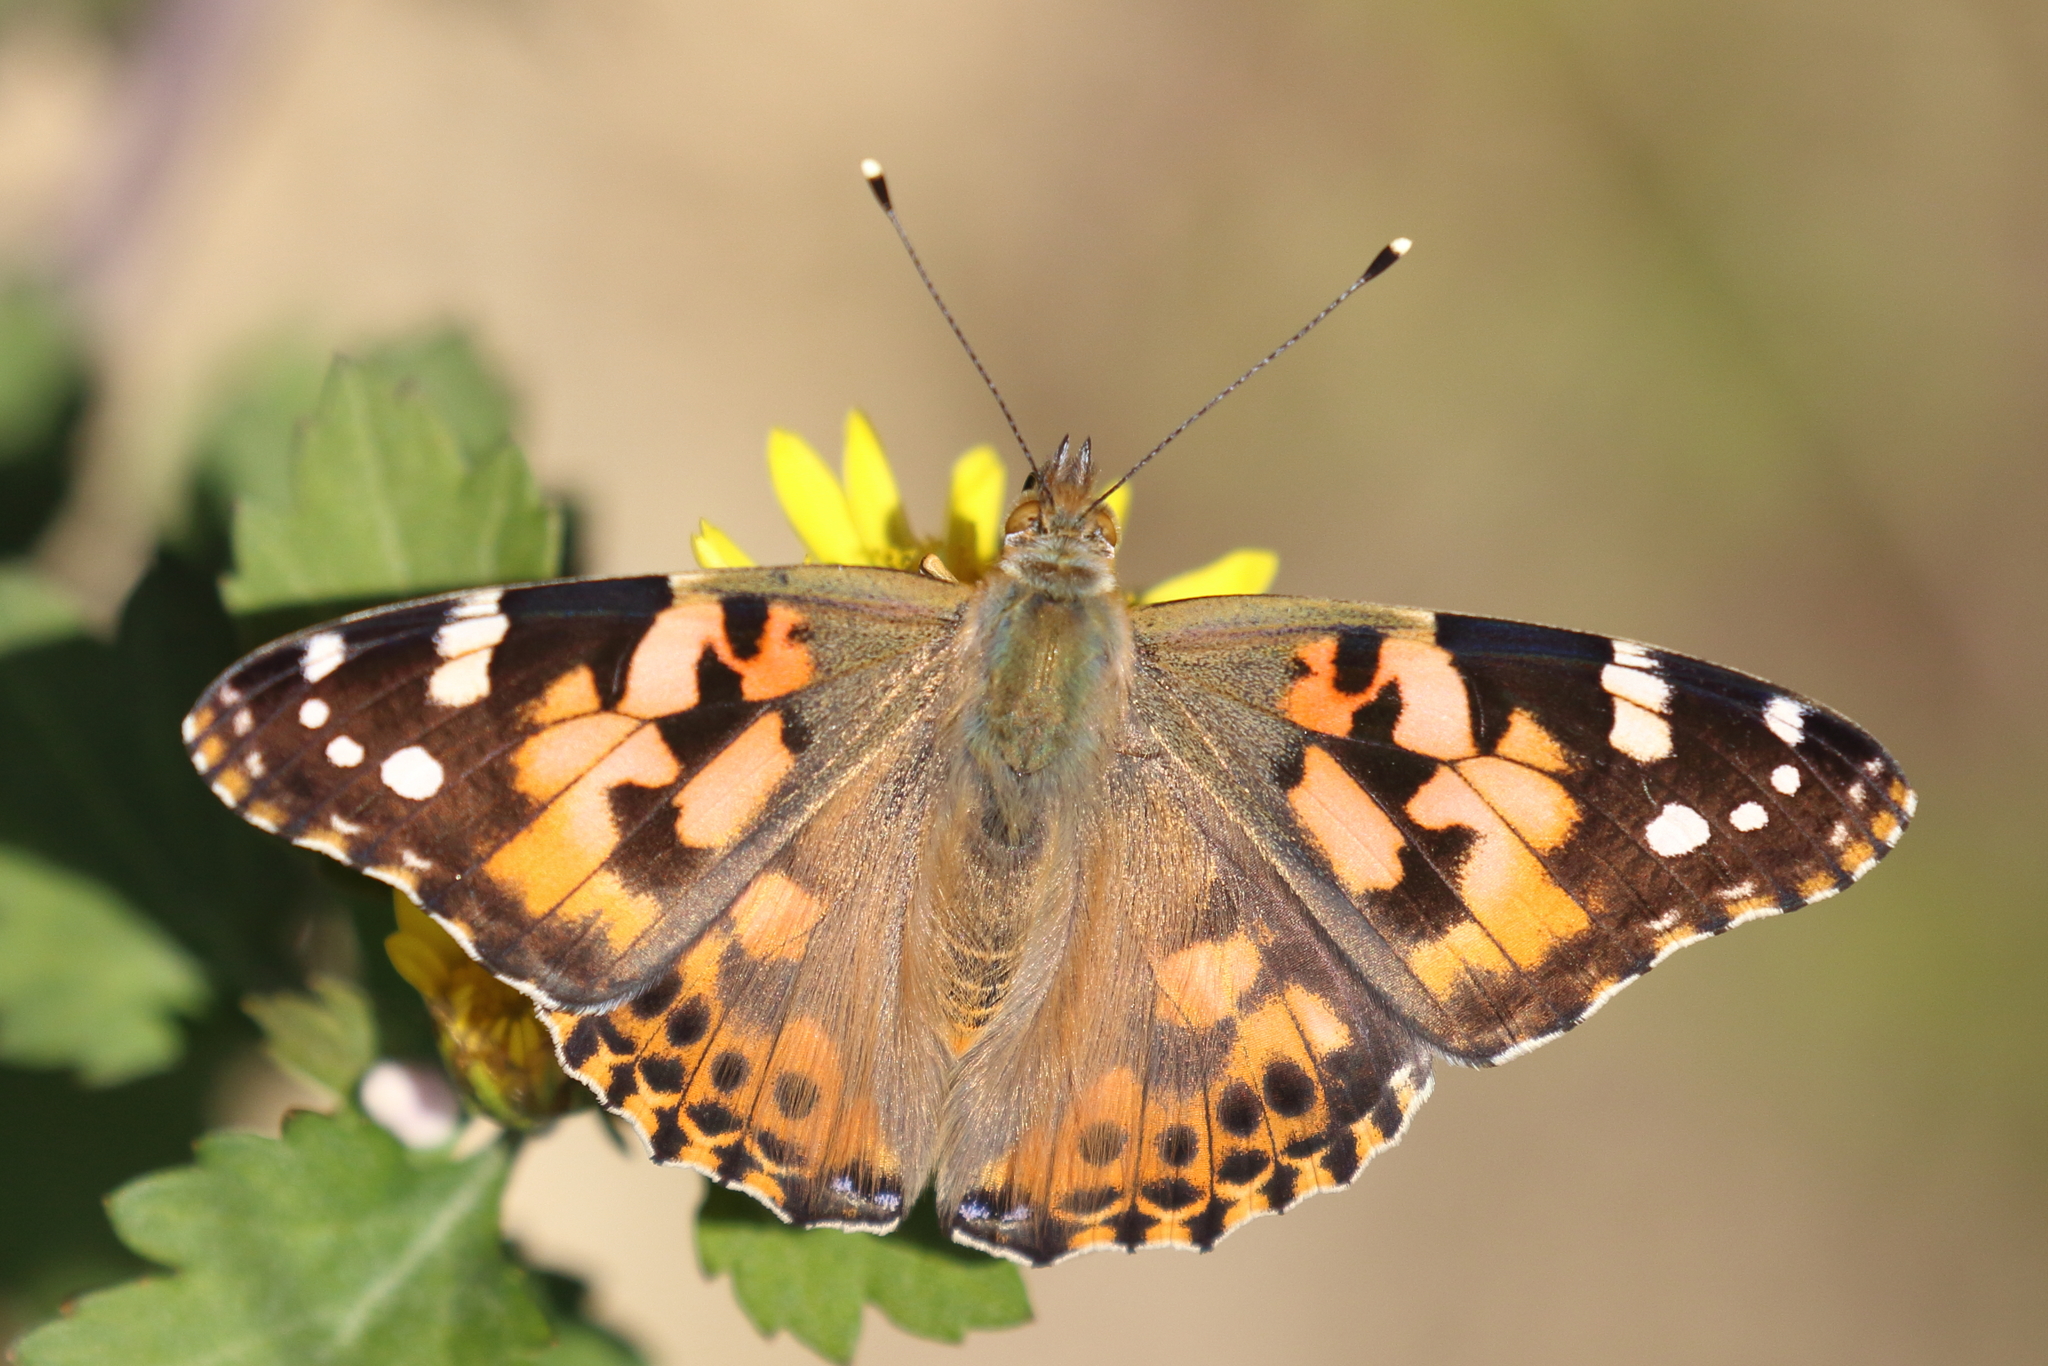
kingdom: Animalia
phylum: Arthropoda
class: Insecta
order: Lepidoptera
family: Nymphalidae
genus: Vanessa
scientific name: Vanessa cardui
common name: Painted lady
